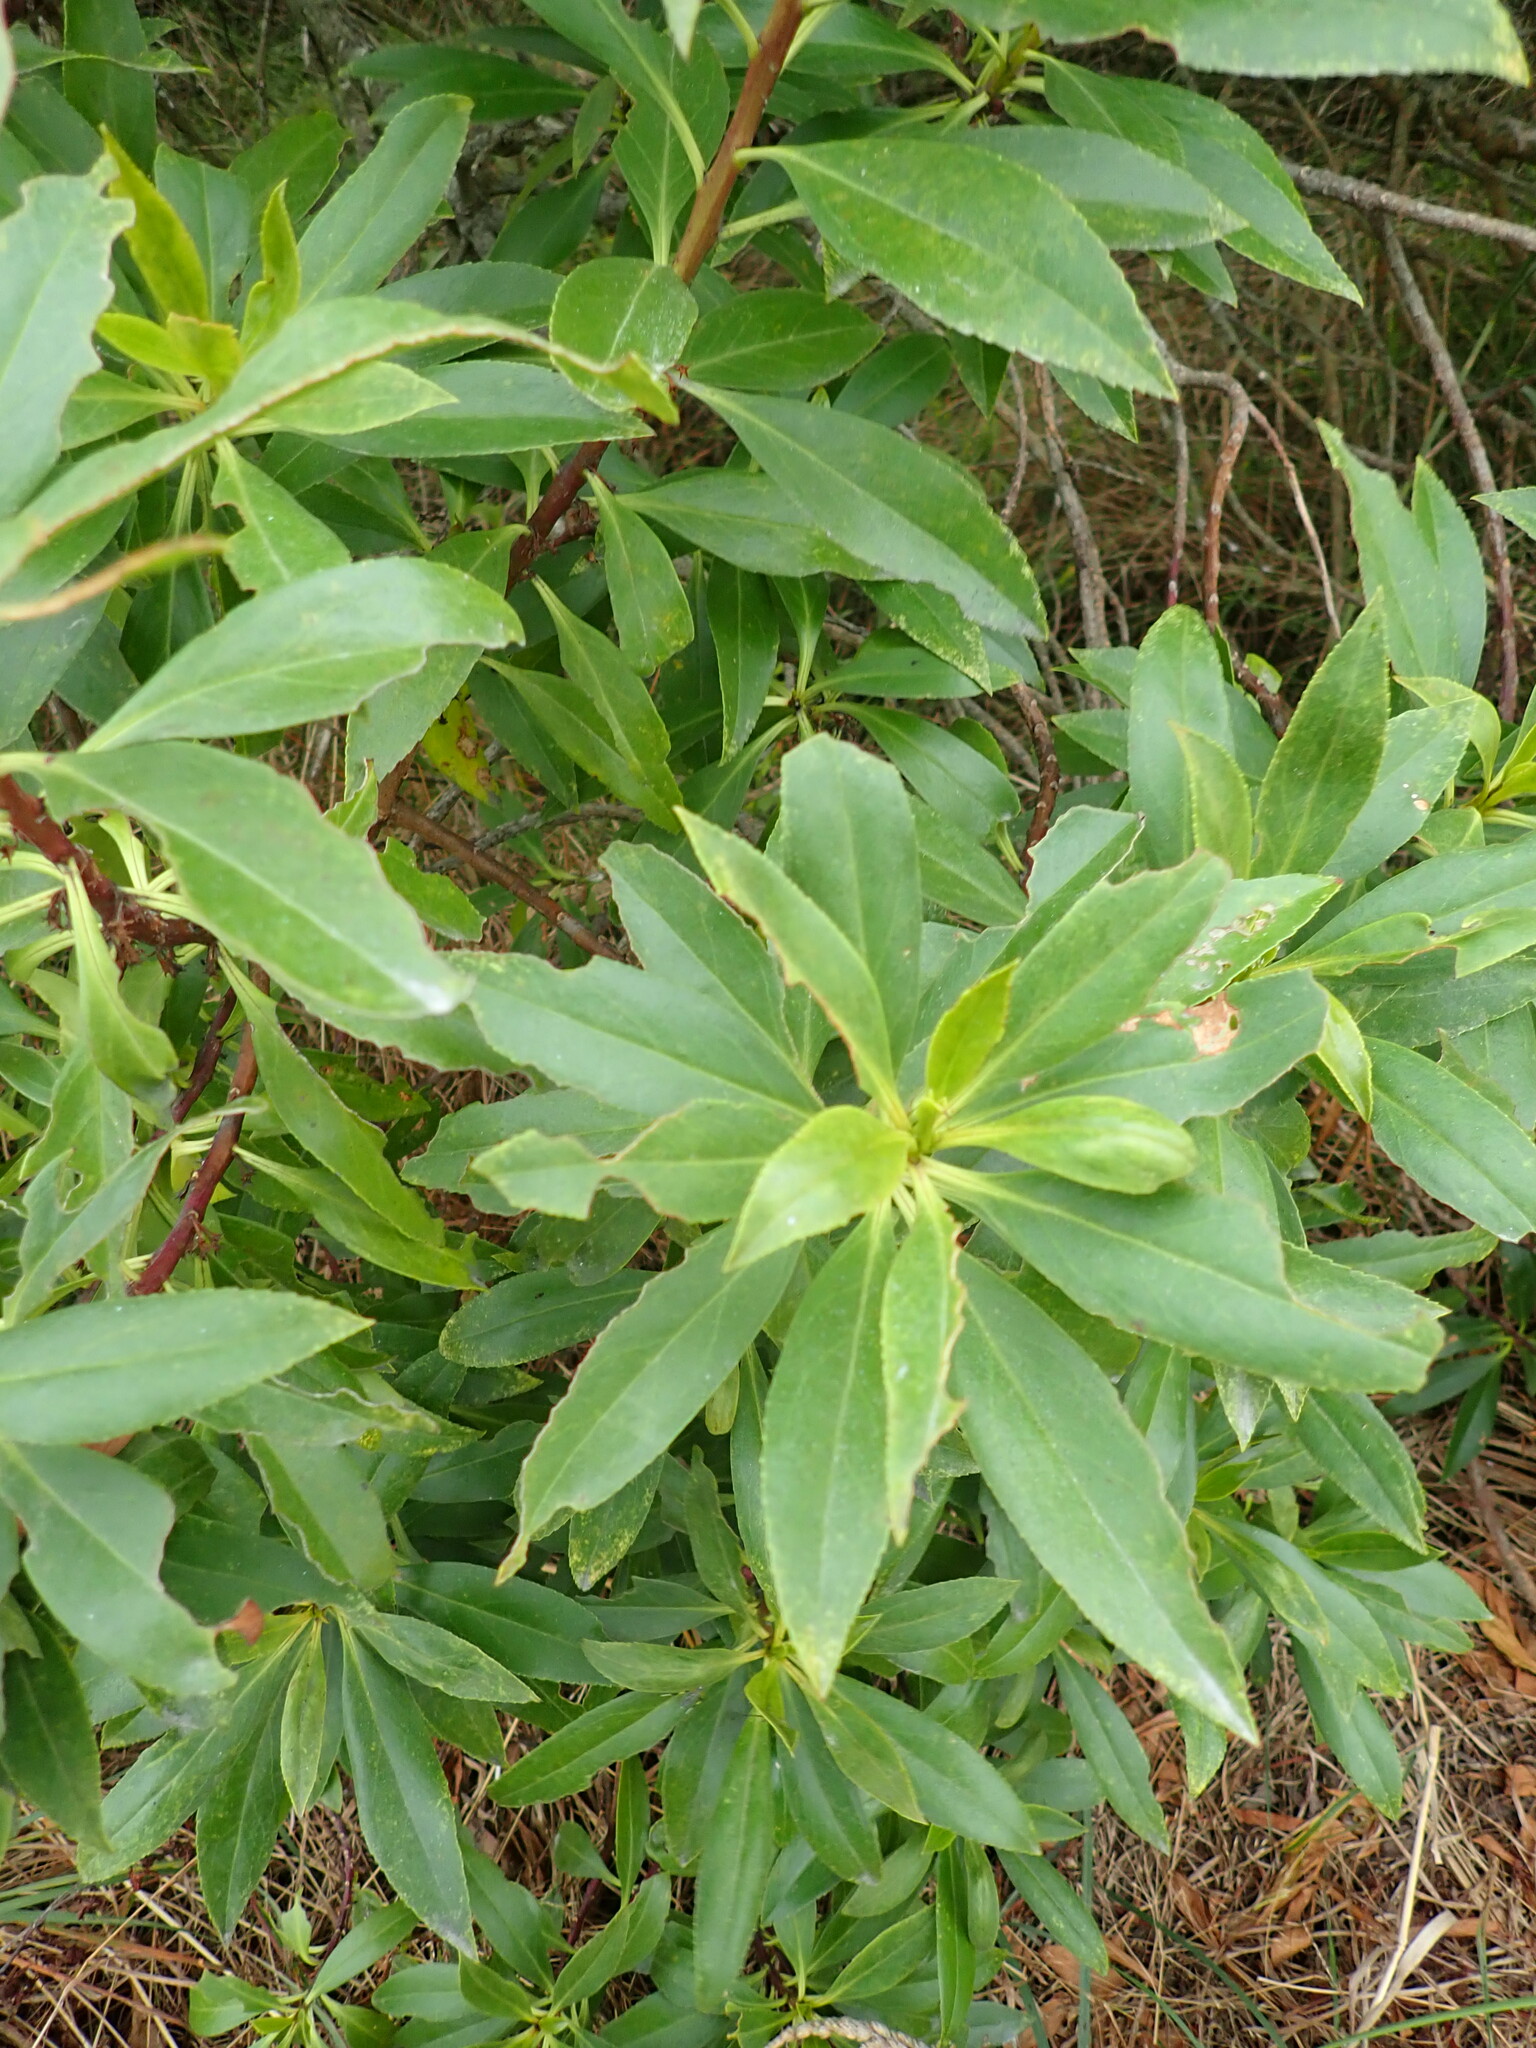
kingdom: Plantae
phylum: Tracheophyta
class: Magnoliopsida
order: Lamiales
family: Scrophulariaceae
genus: Myoporum
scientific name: Myoporum insulare
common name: Common boobialla
